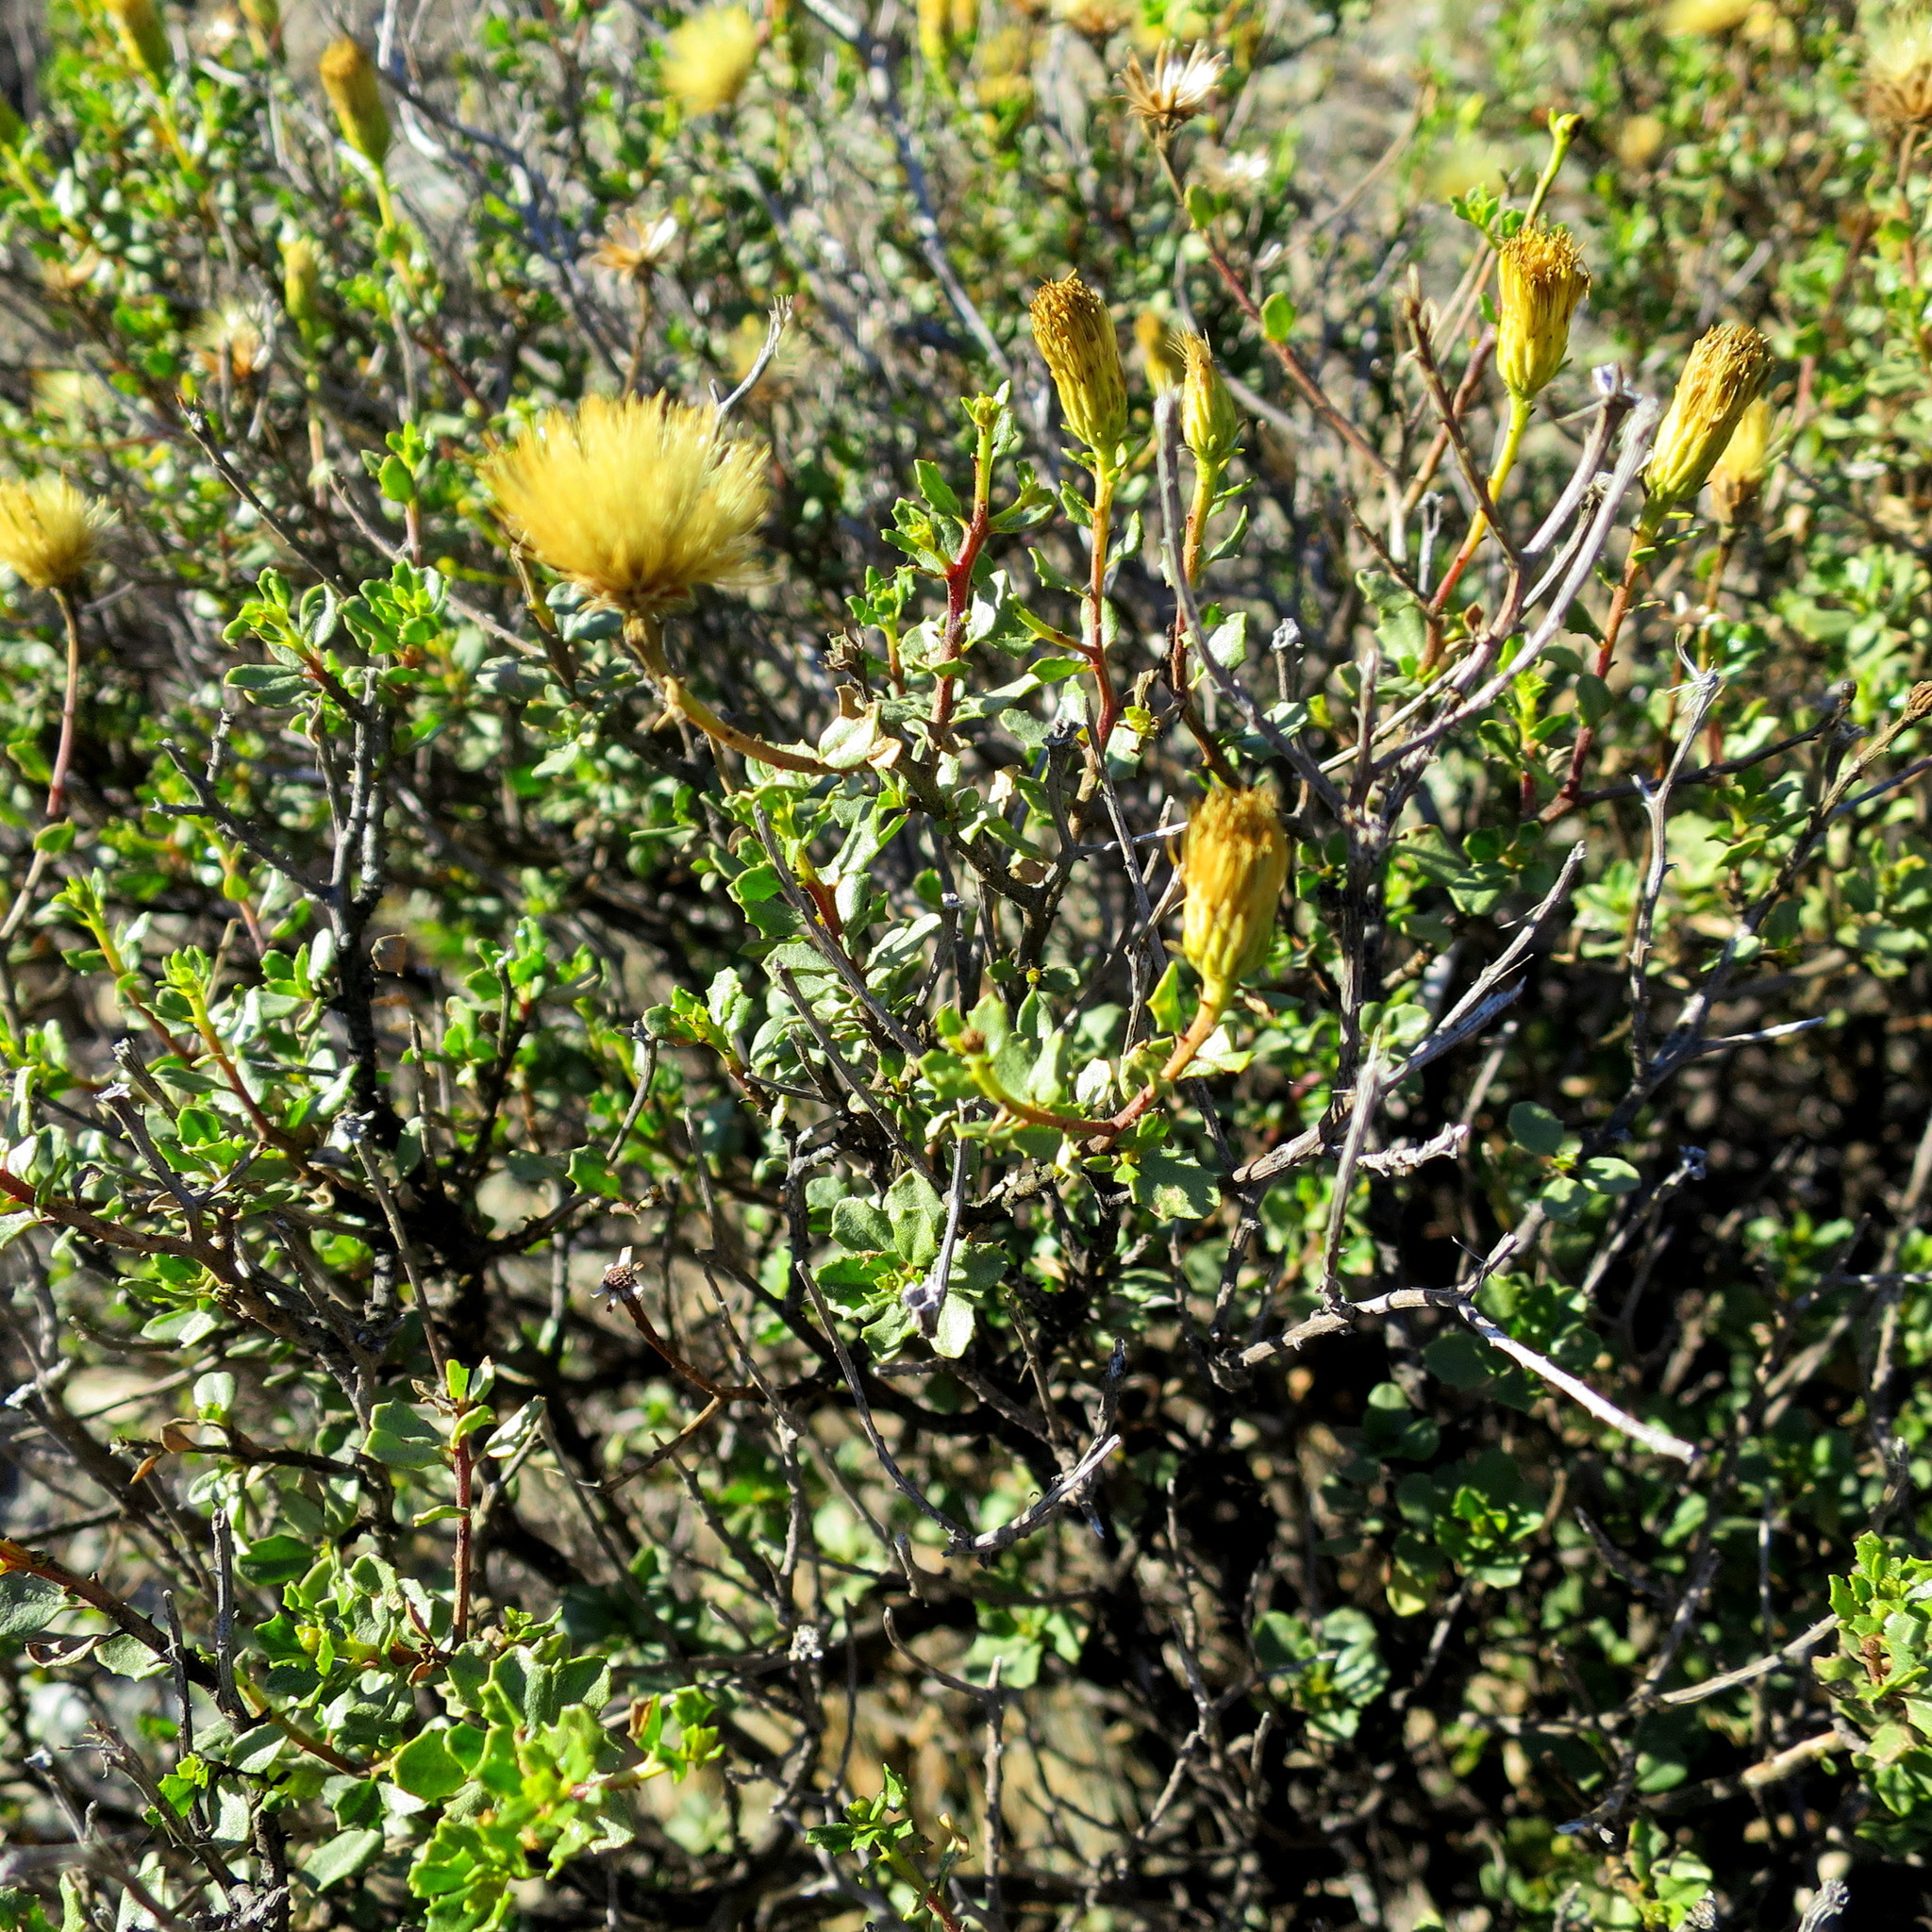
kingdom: Plantae
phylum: Tracheophyta
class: Magnoliopsida
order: Asterales
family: Asteraceae
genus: Pegolettia
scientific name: Pegolettia baccaridifolia
